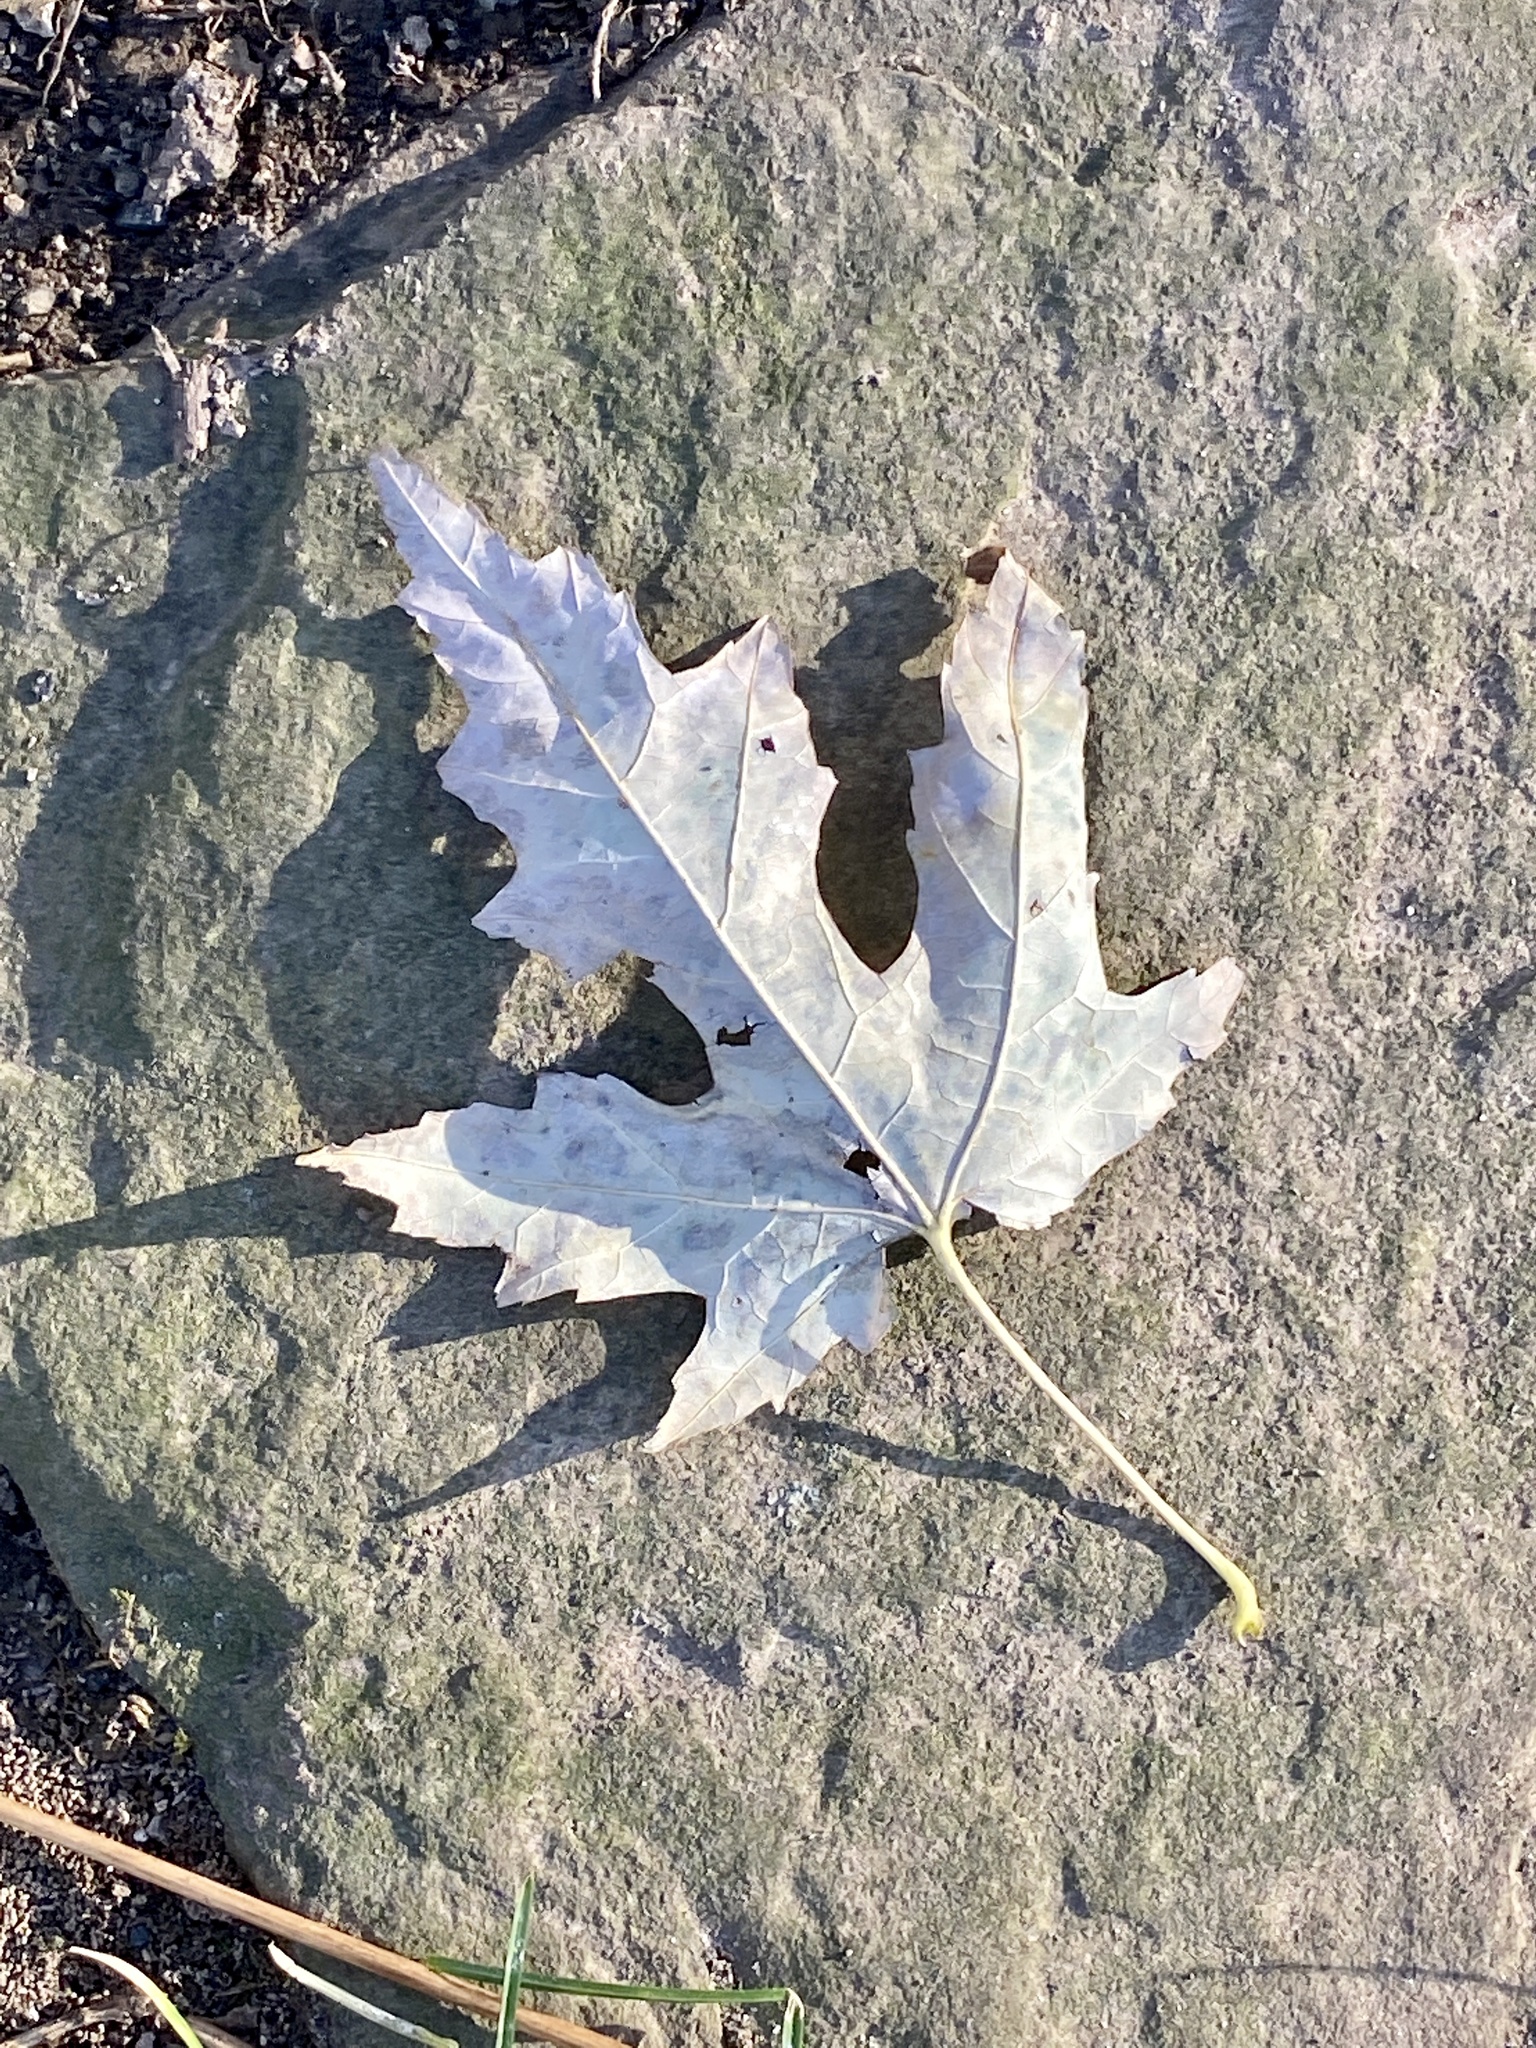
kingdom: Plantae
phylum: Tracheophyta
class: Magnoliopsida
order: Sapindales
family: Sapindaceae
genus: Acer
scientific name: Acer saccharinum
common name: Silver maple
